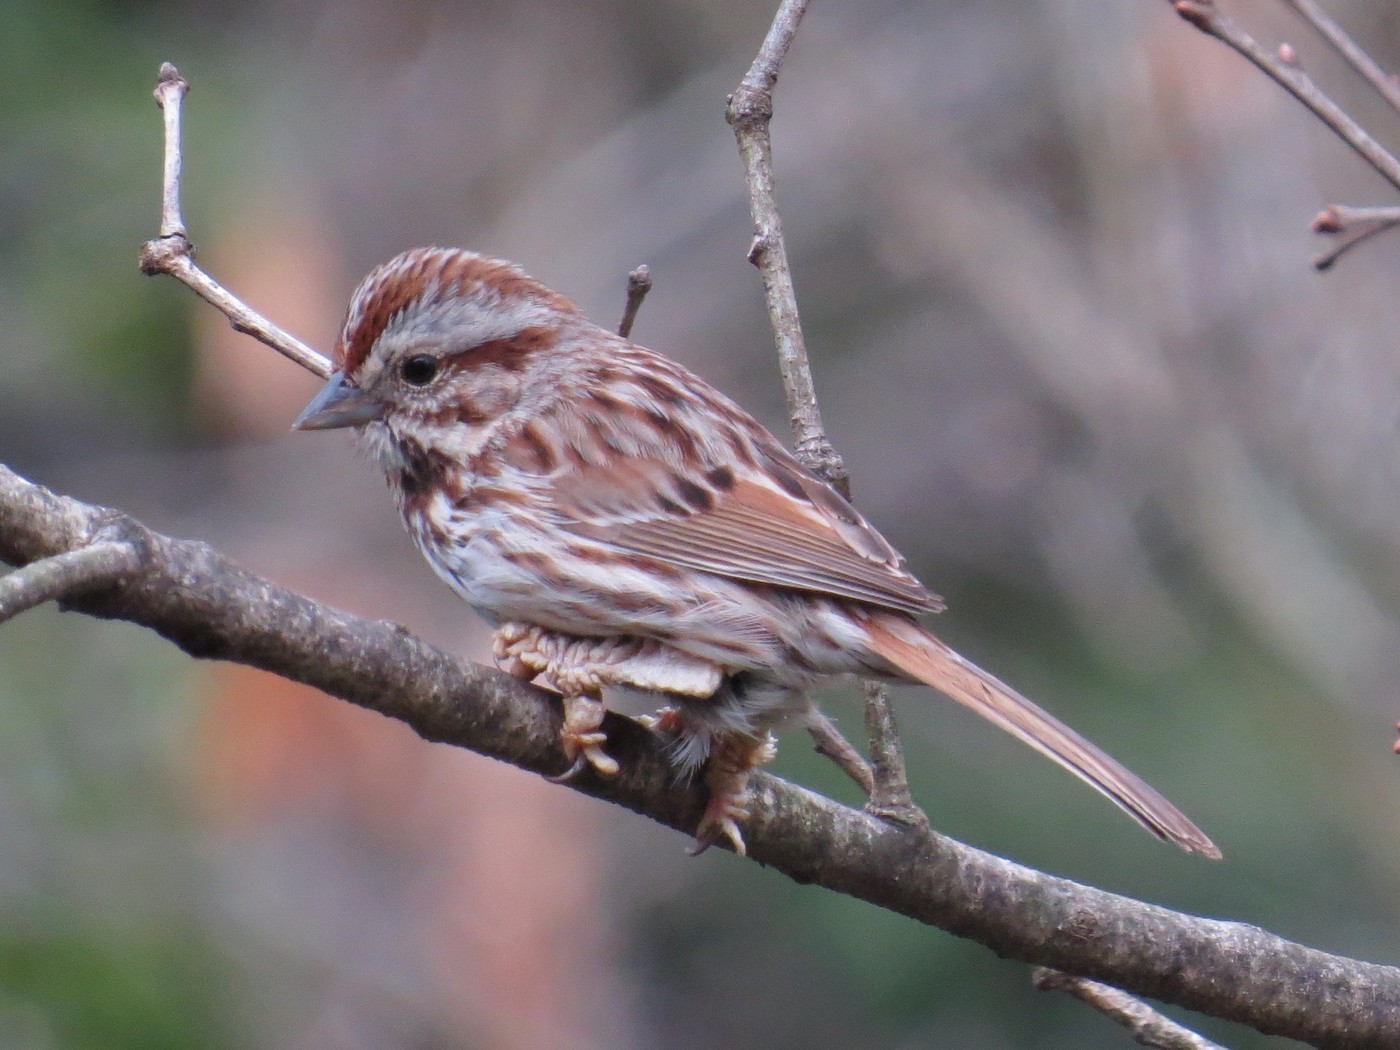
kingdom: Animalia
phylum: Chordata
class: Aves
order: Passeriformes
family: Passerellidae
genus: Melospiza
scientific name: Melospiza melodia
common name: Song sparrow
